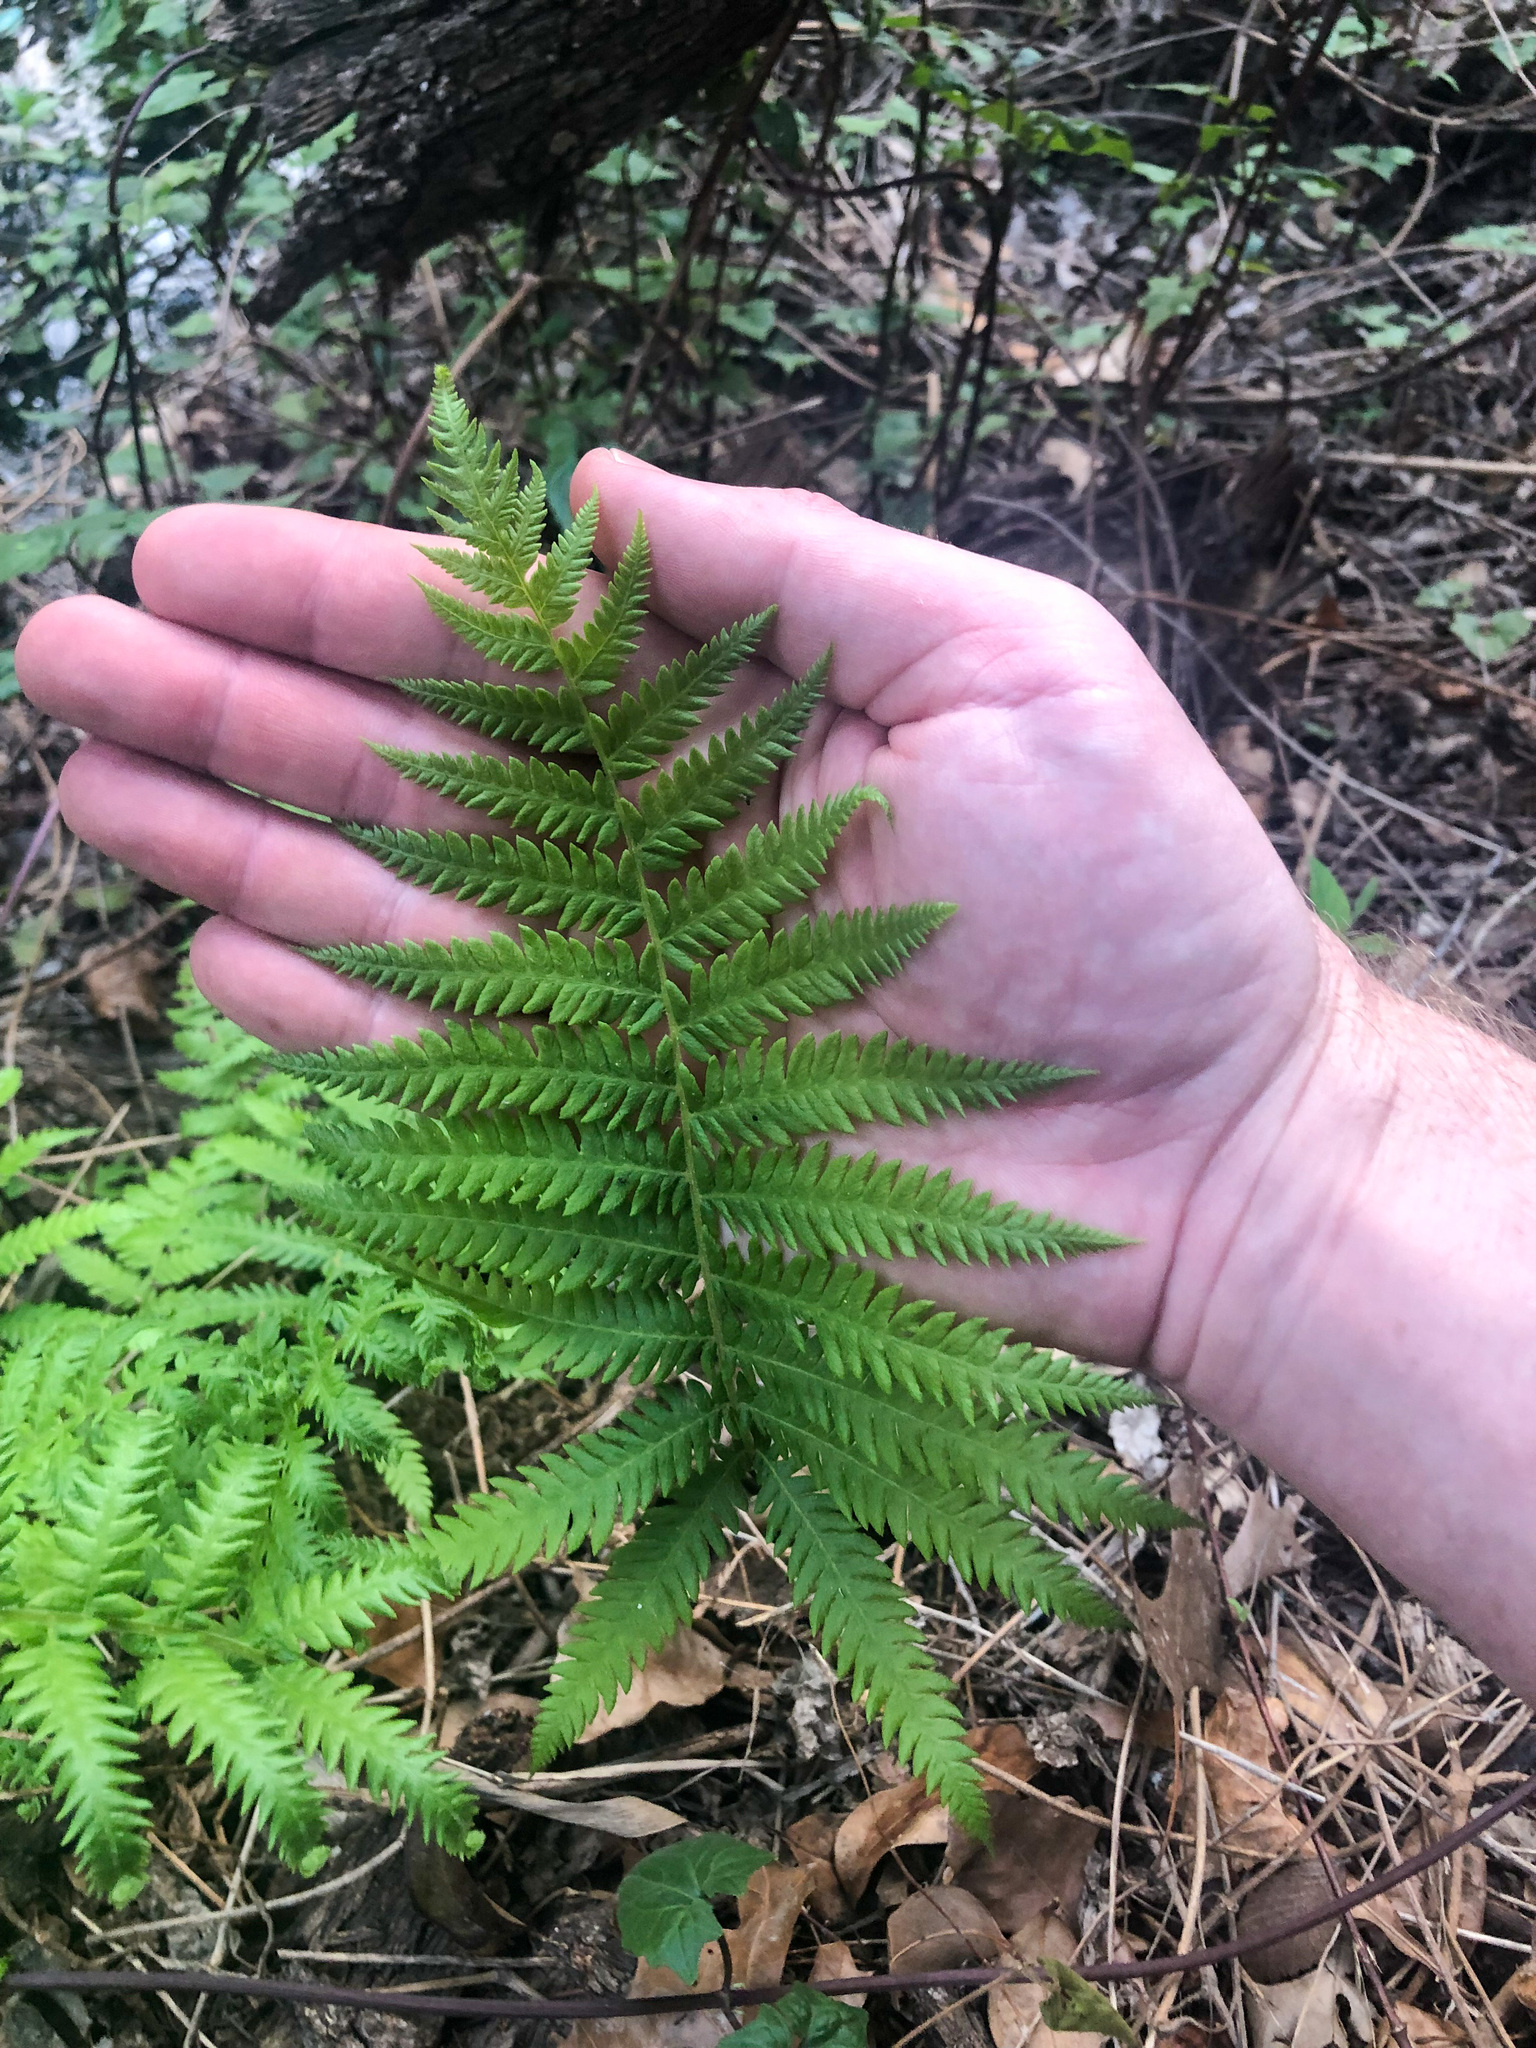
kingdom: Plantae
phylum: Tracheophyta
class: Polypodiopsida
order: Polypodiales
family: Thelypteridaceae
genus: Pelazoneuron
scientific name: Pelazoneuron ovatum
